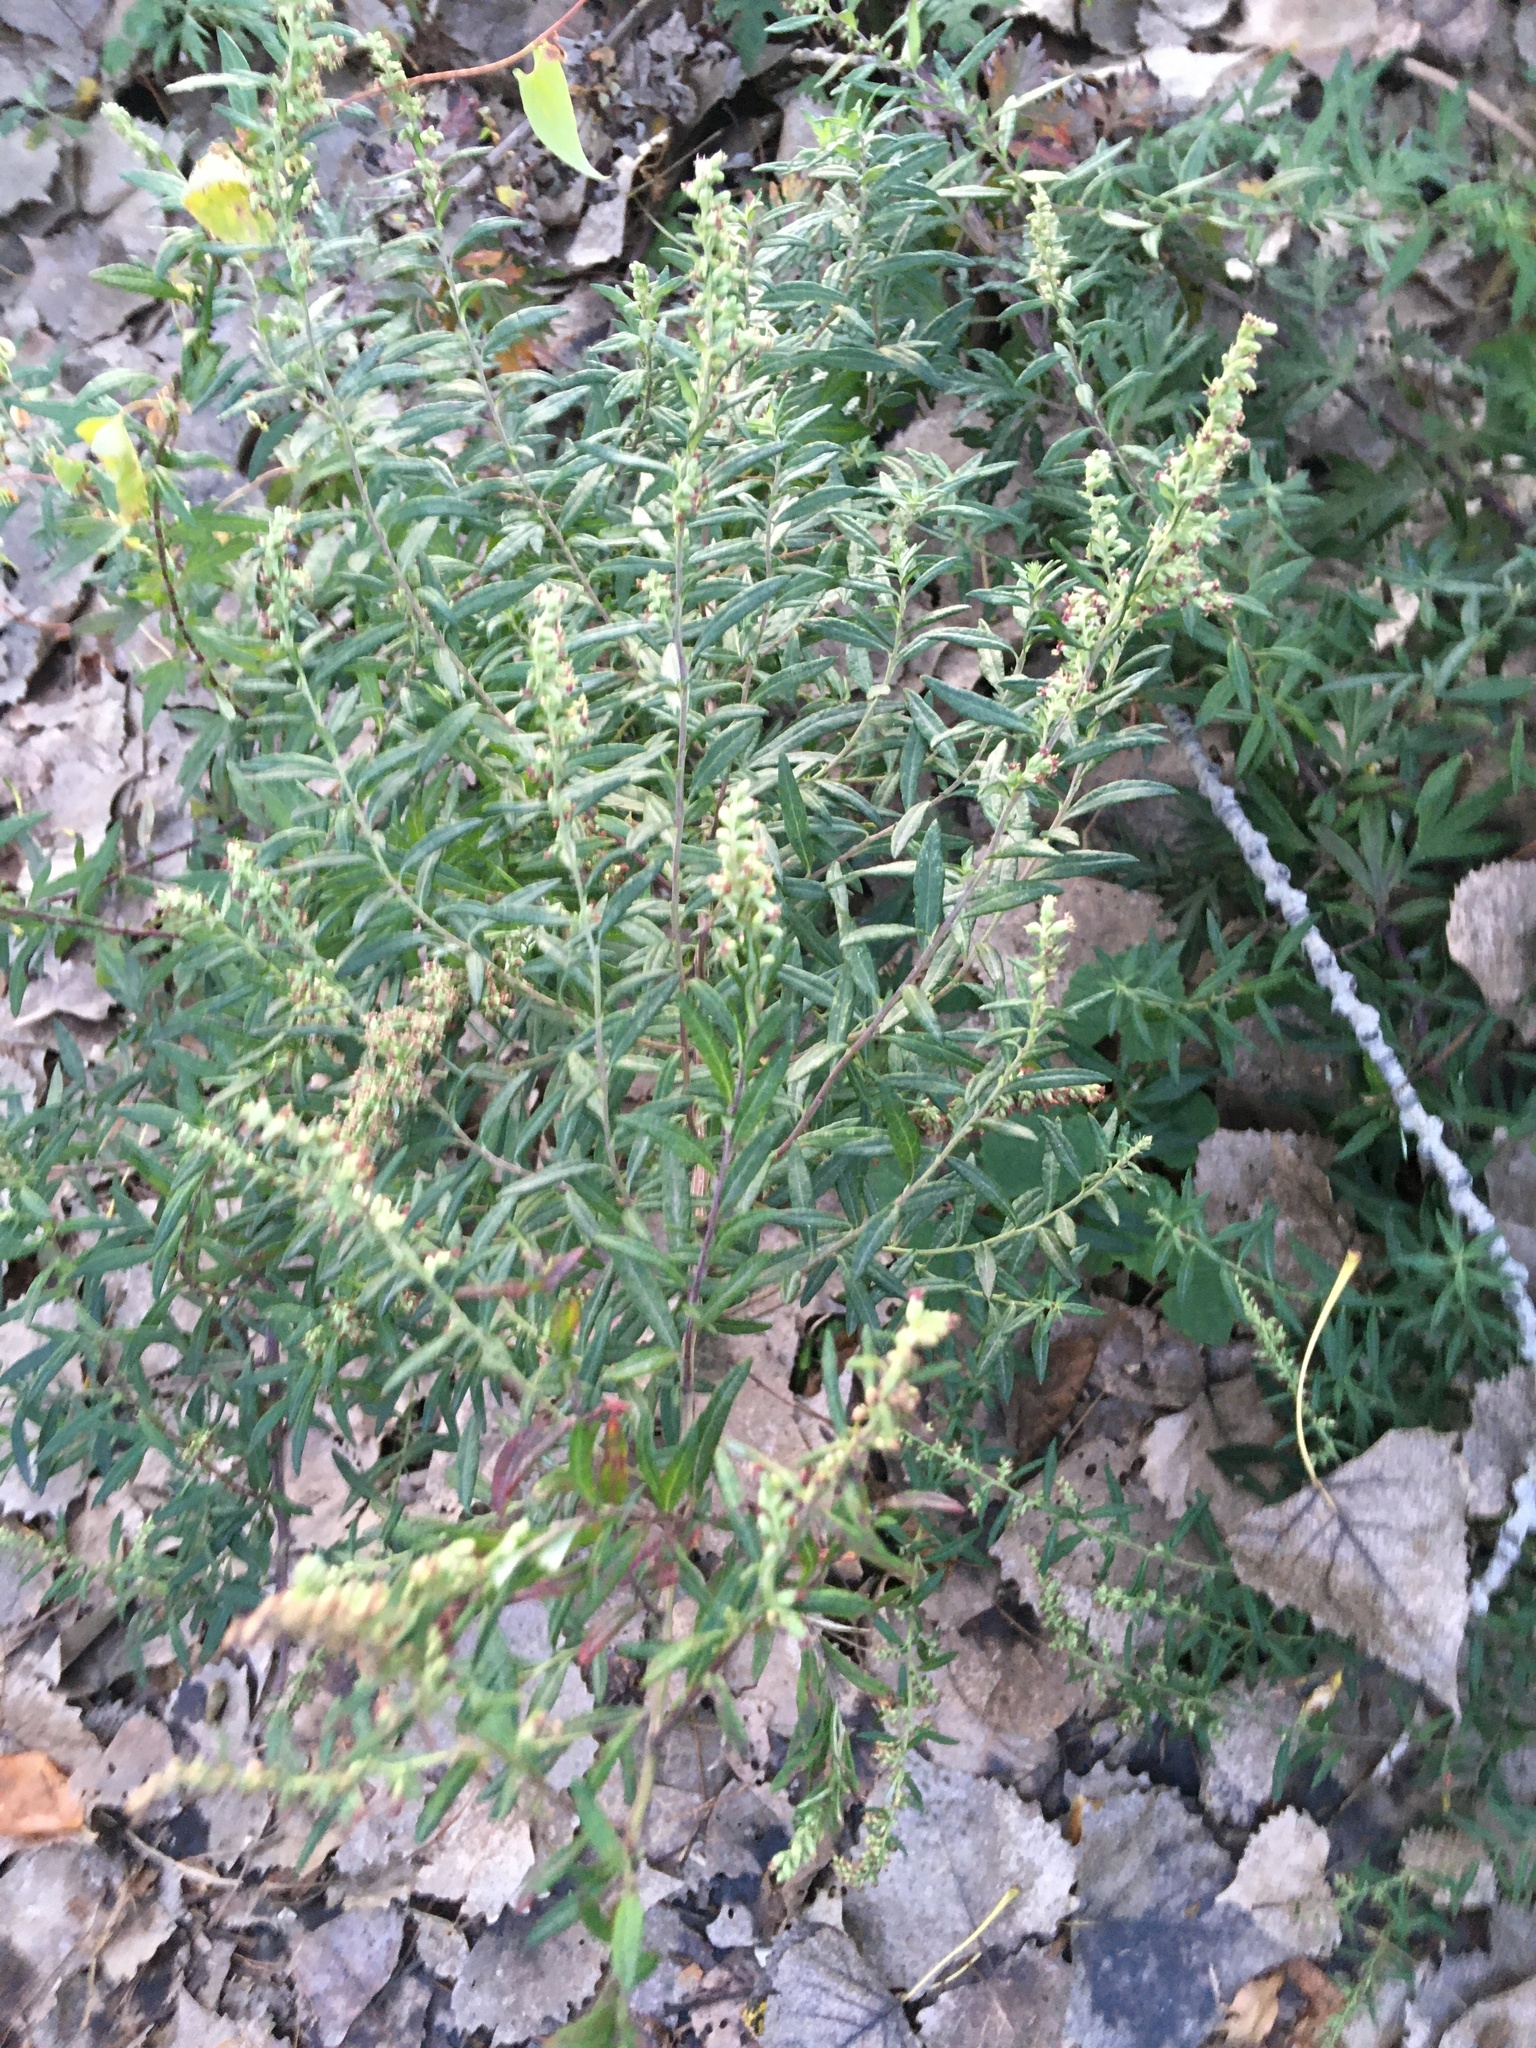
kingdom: Plantae
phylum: Tracheophyta
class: Magnoliopsida
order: Asterales
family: Asteraceae
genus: Artemisia
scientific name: Artemisia vulgaris
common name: Mugwort
